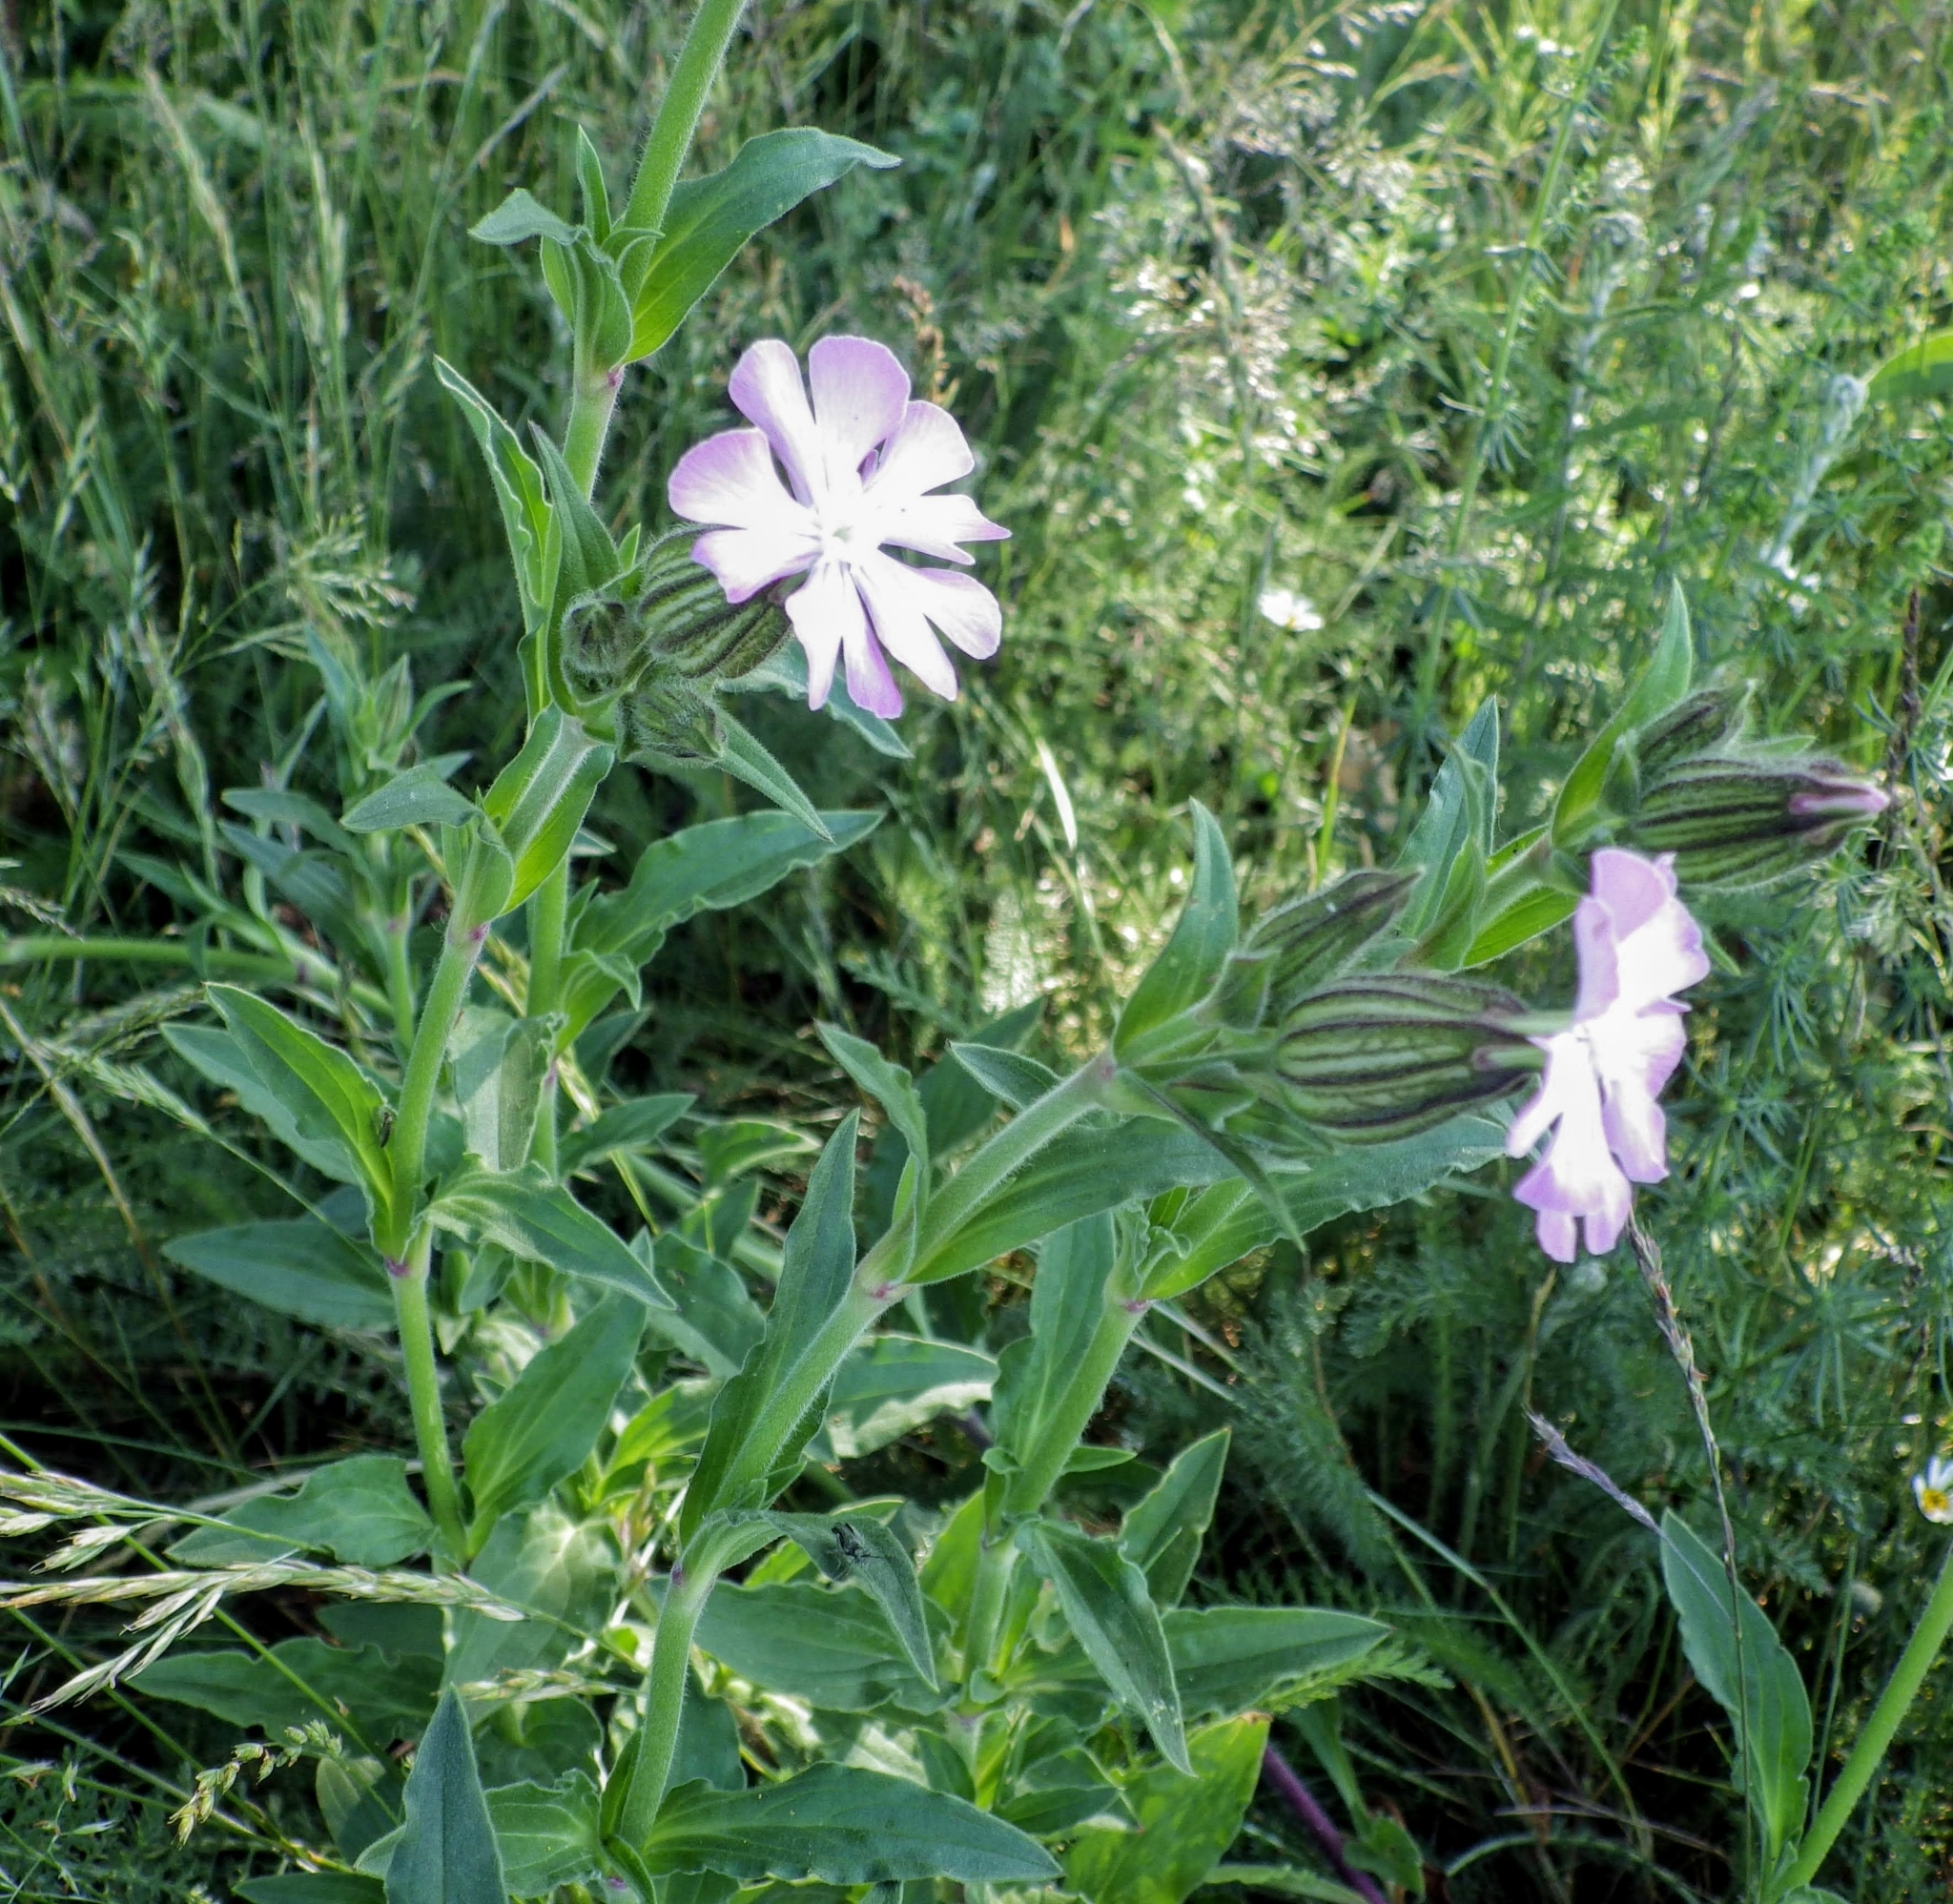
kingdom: Plantae
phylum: Tracheophyta
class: Magnoliopsida
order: Caryophyllales
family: Caryophyllaceae
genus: Silene
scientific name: Silene hampeana
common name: Catchfly
